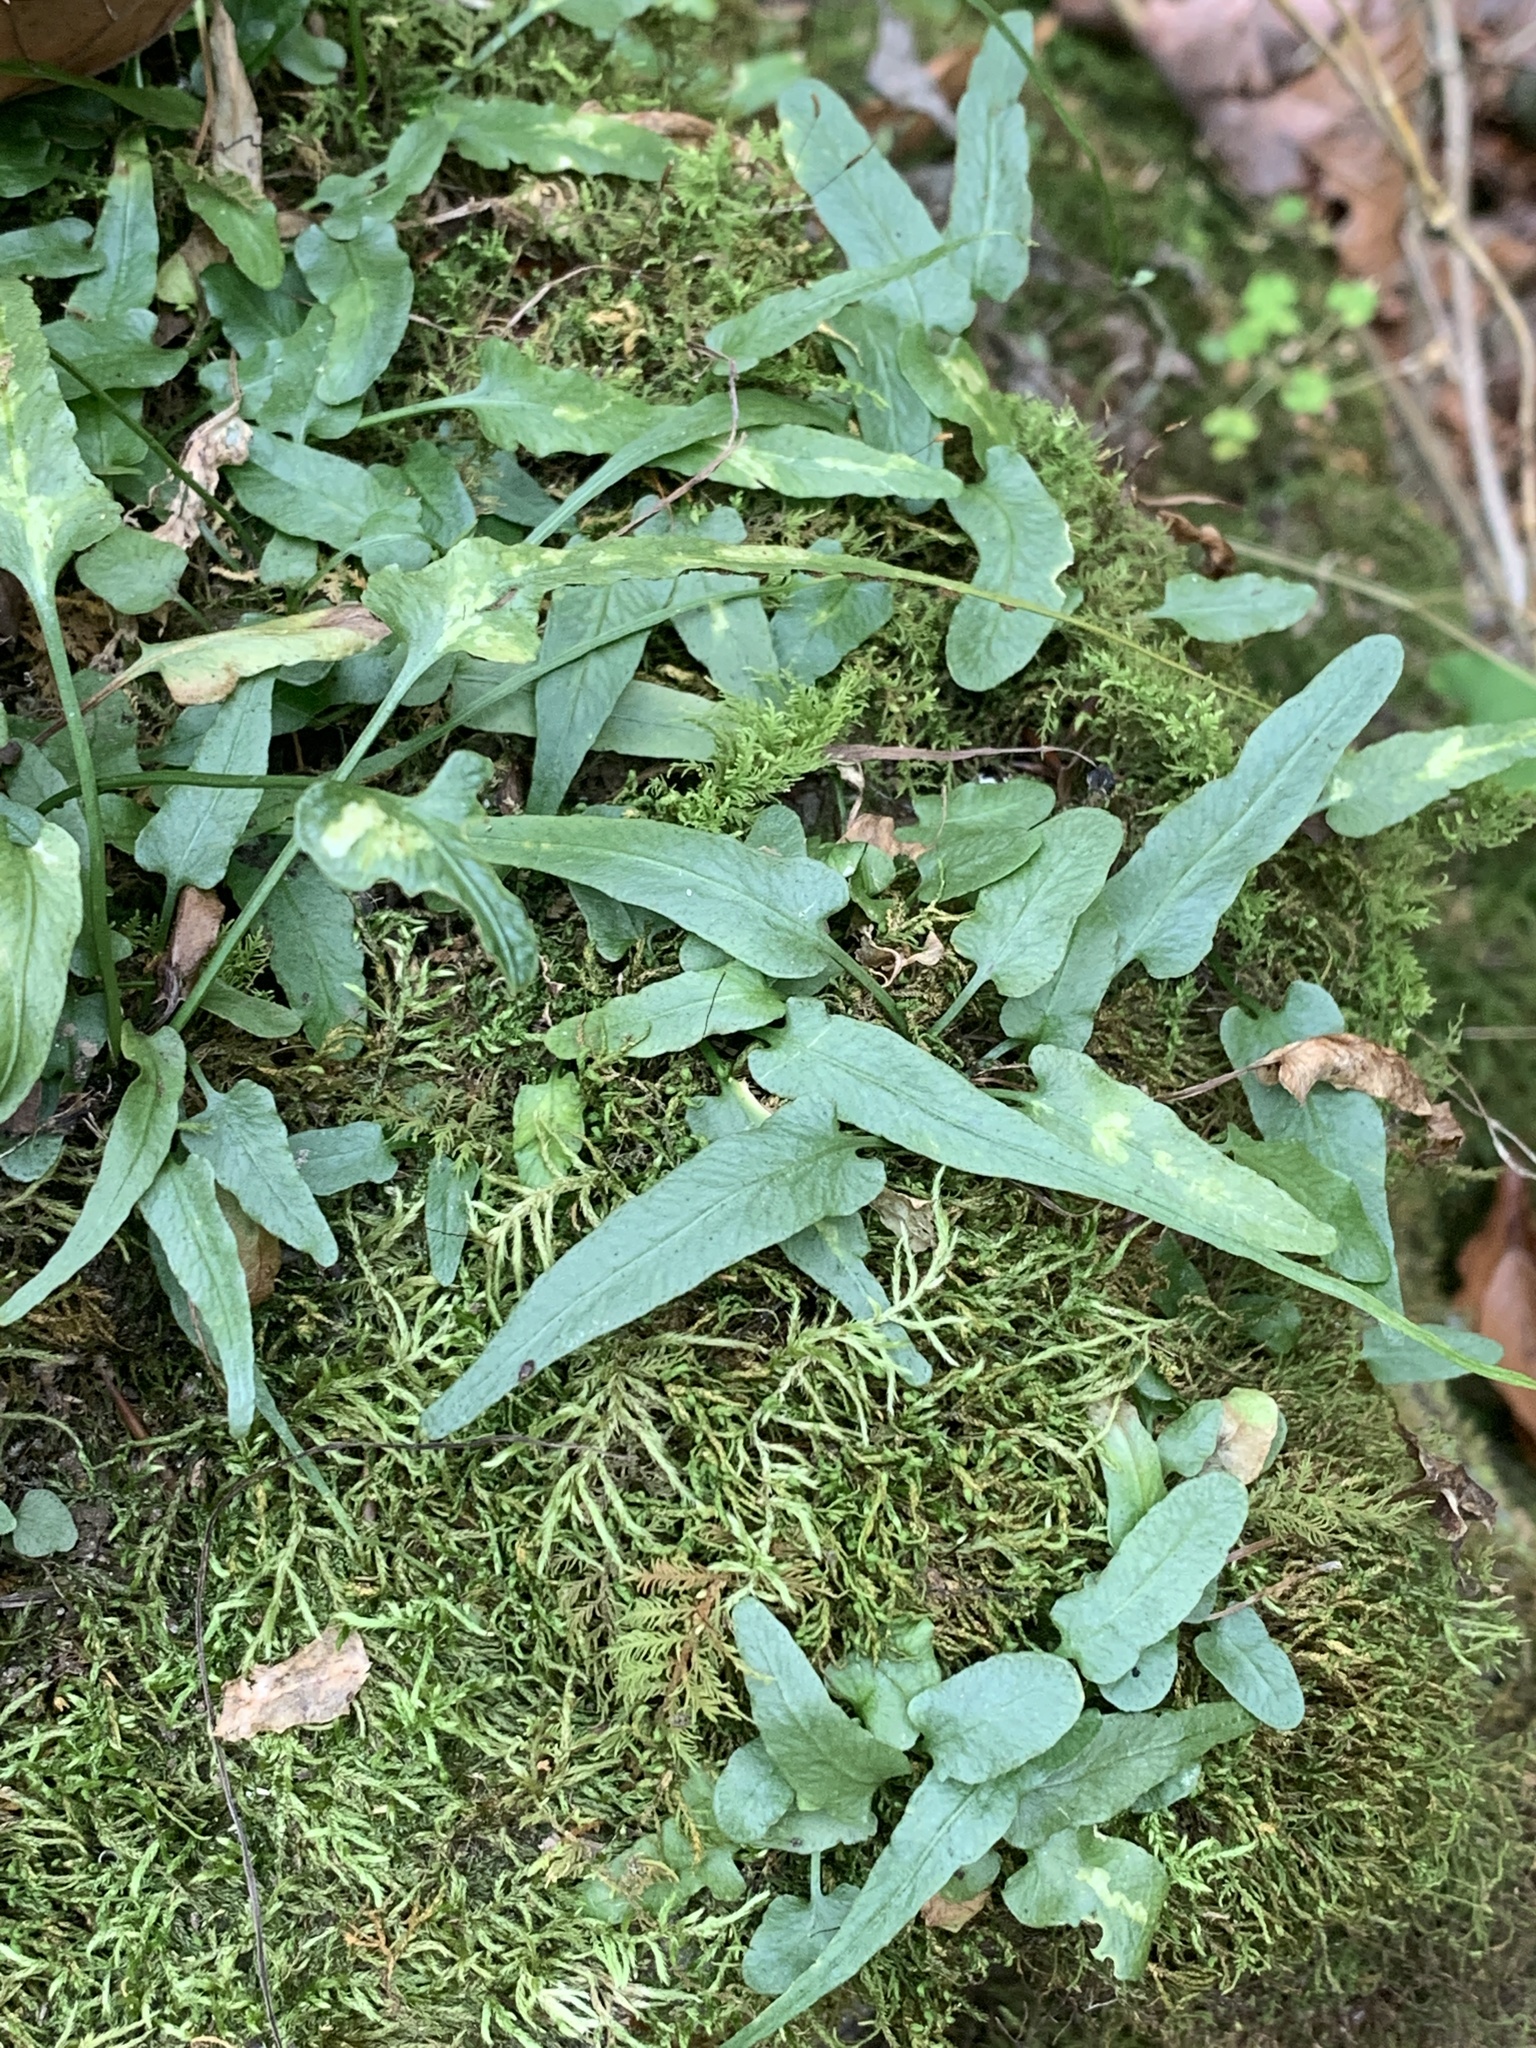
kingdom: Plantae
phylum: Tracheophyta
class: Polypodiopsida
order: Polypodiales
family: Aspleniaceae
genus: Asplenium
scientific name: Asplenium rhizophyllum
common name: Walking fern
